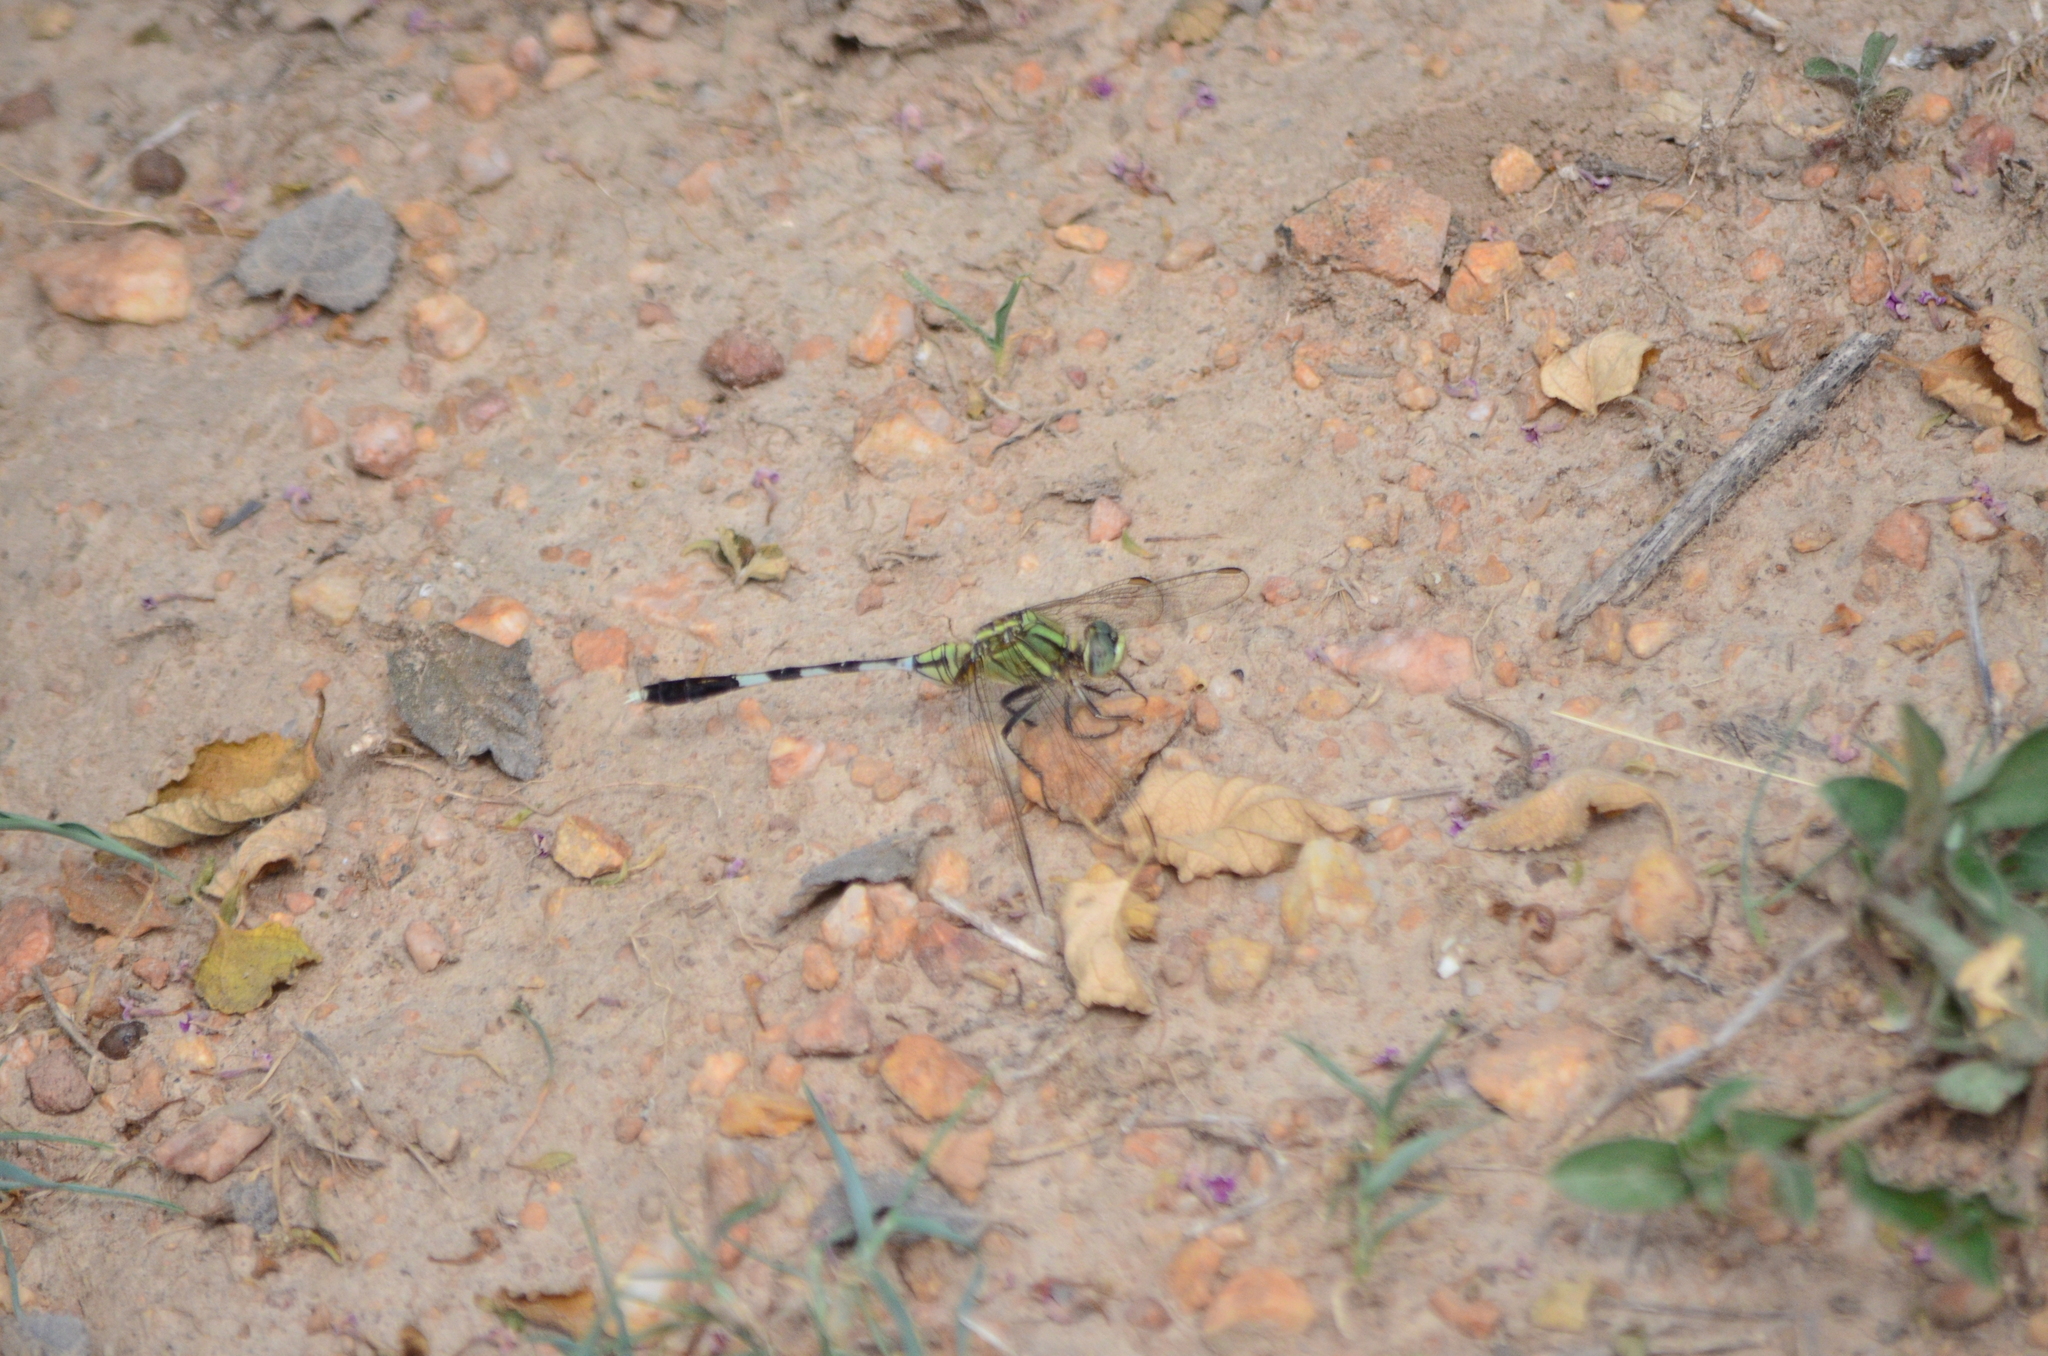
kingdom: Animalia
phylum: Arthropoda
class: Insecta
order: Odonata
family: Libellulidae
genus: Orthetrum
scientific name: Orthetrum sabina
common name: Slender skimmer
